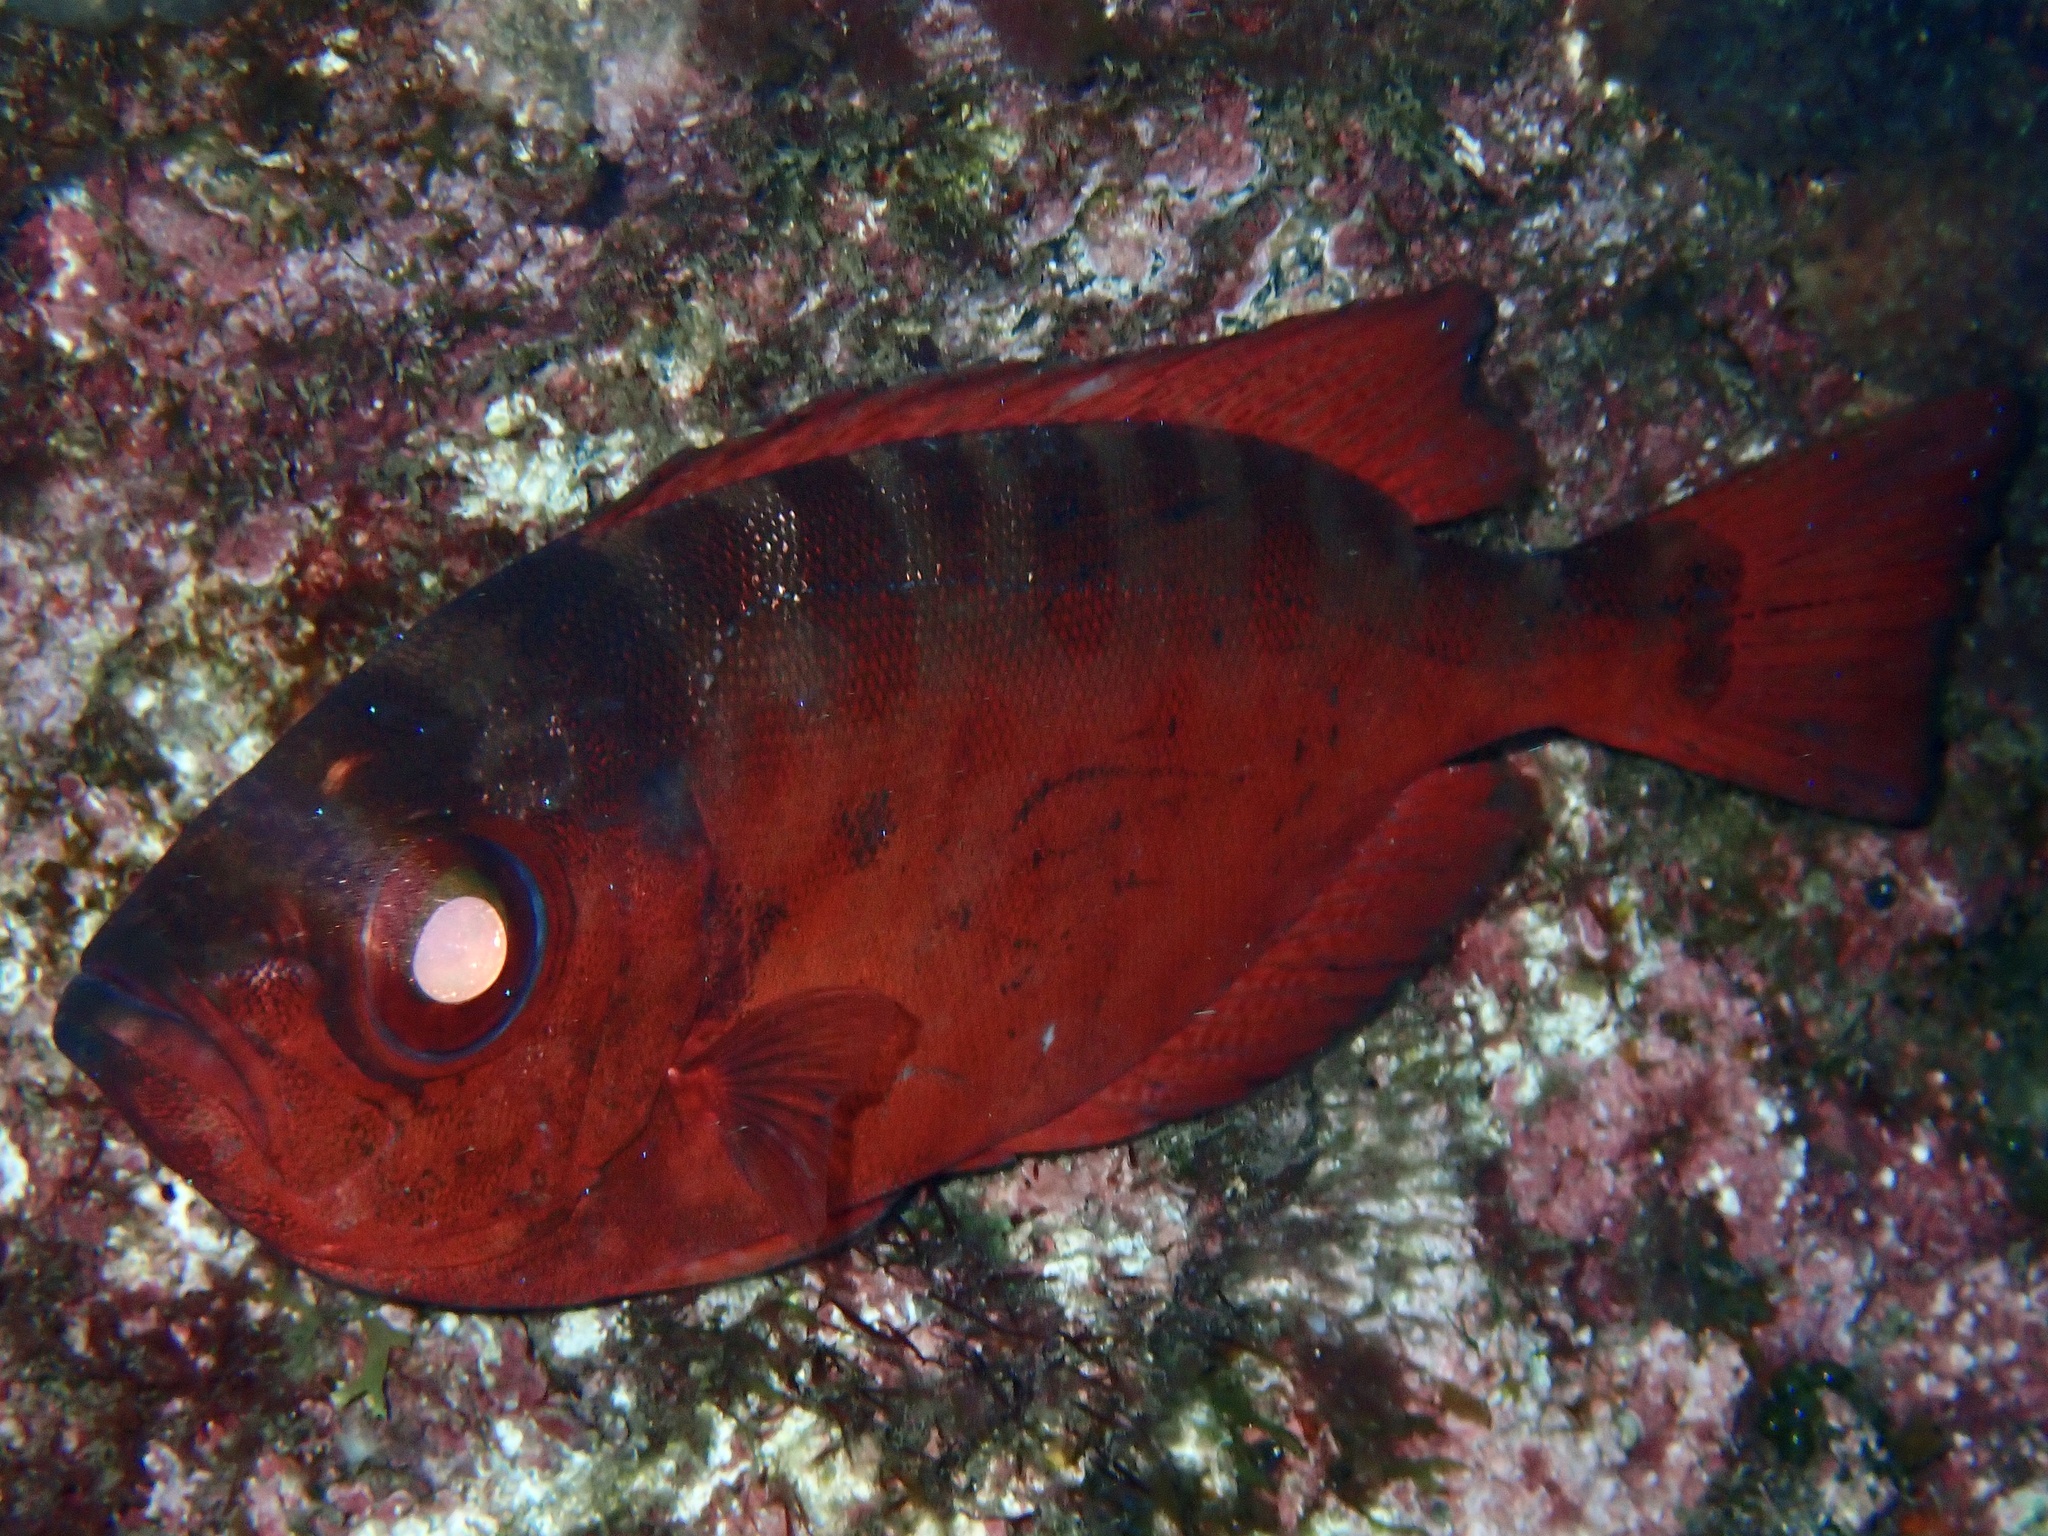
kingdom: Animalia
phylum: Chordata
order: Perciformes
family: Priacanthidae
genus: Heteropriacanthus
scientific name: Heteropriacanthus fulgens
